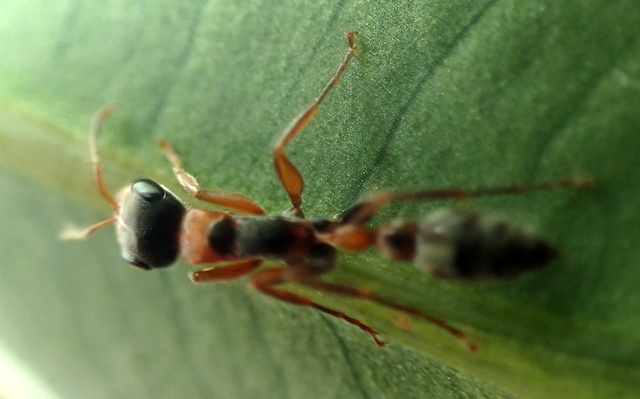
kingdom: Animalia
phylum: Arthropoda
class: Insecta
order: Hymenoptera
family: Formicidae
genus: Pseudomyrmex
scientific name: Pseudomyrmex gracilis
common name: Graceful twig ant
